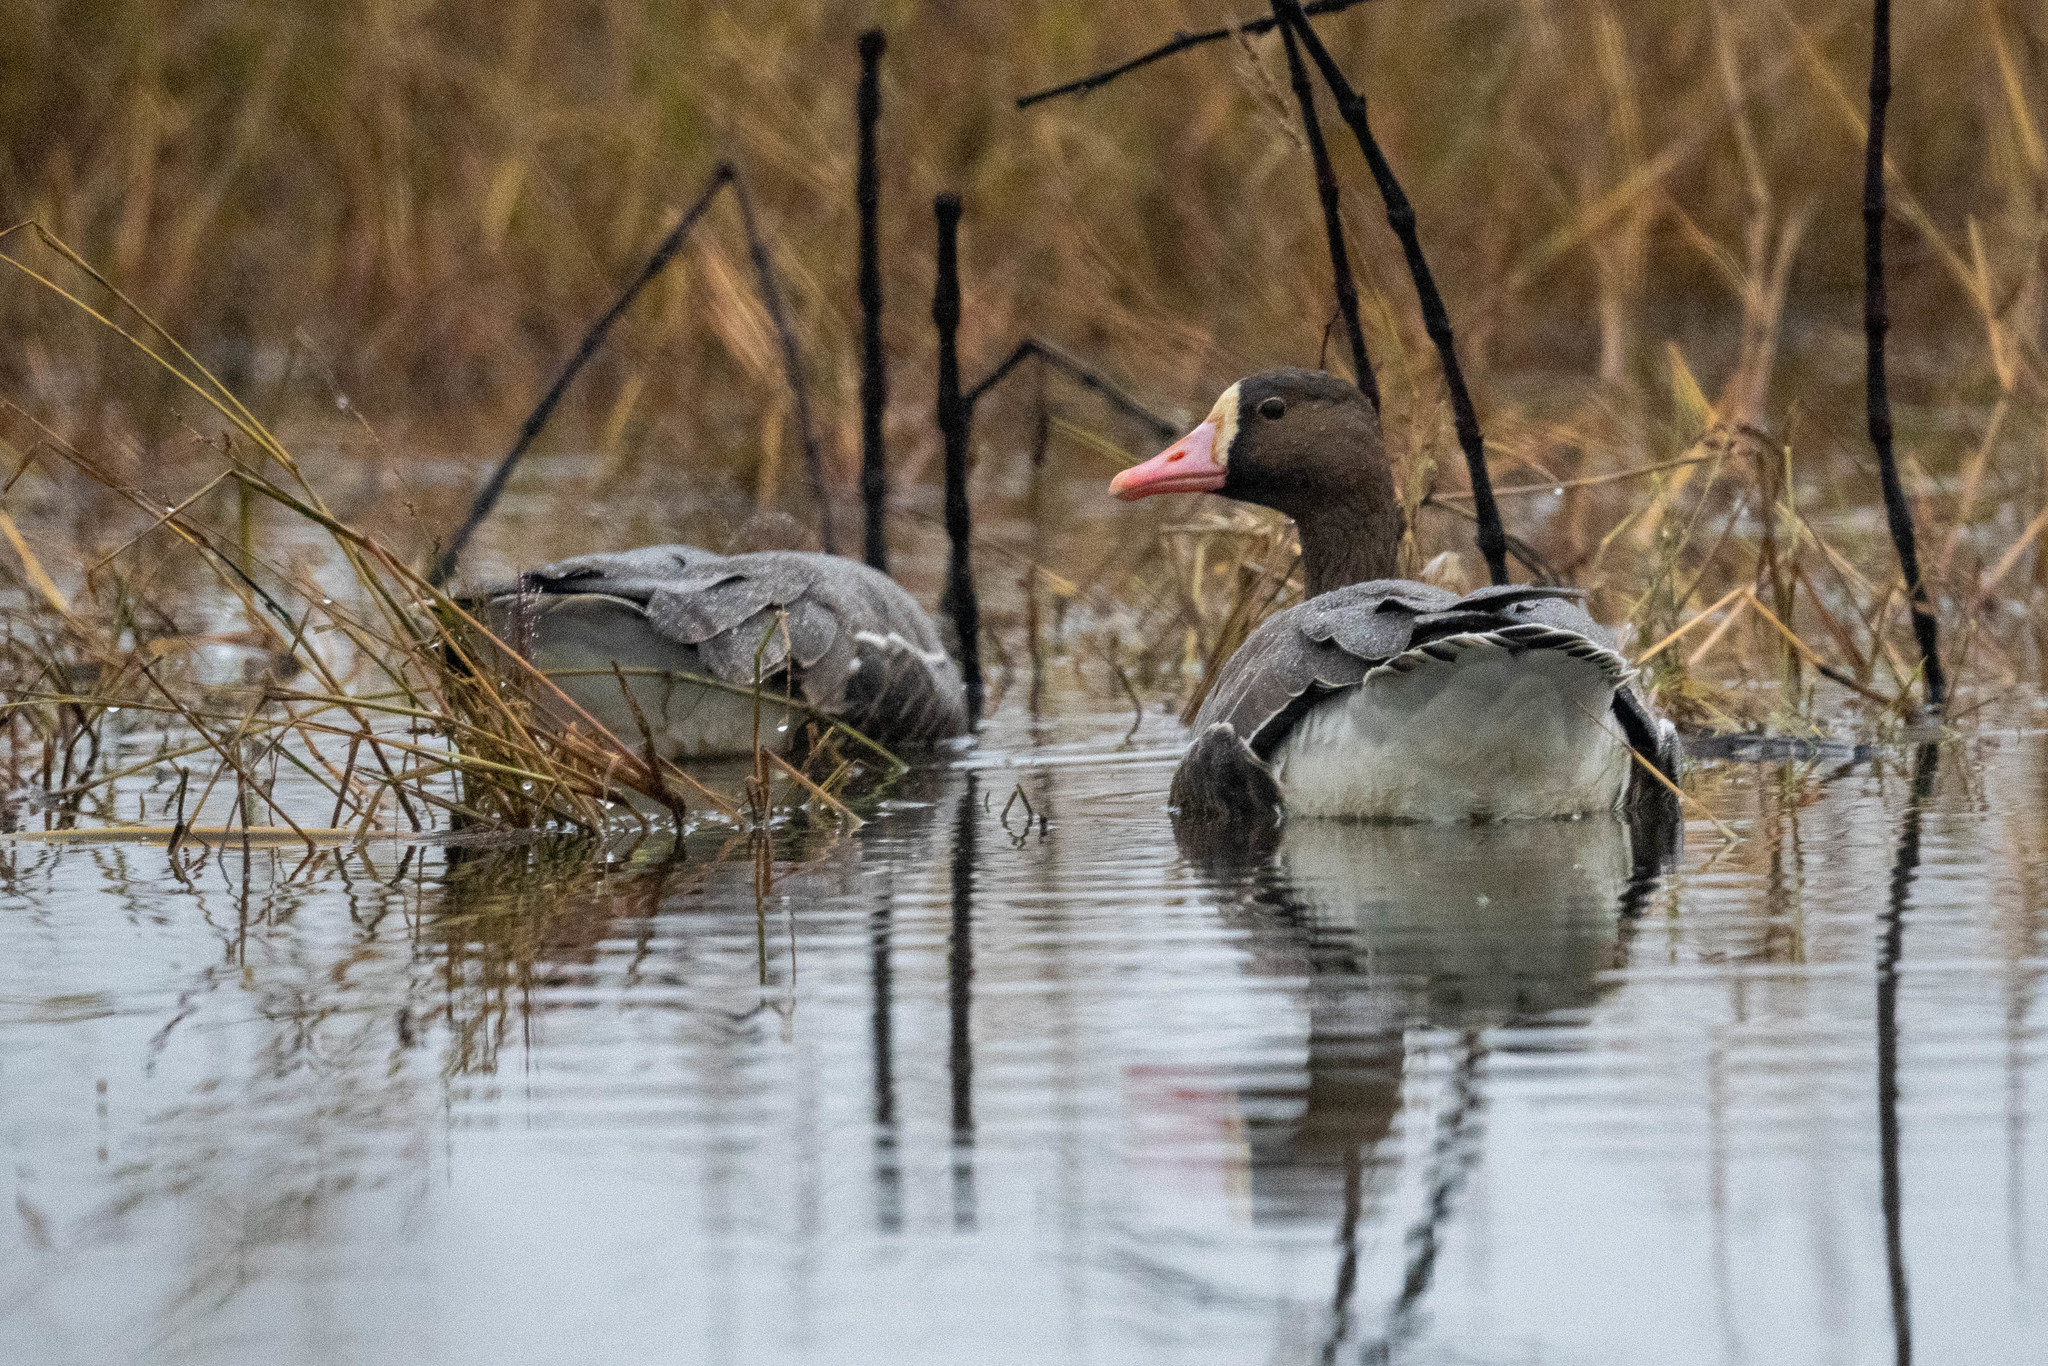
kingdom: Animalia
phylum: Chordata
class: Aves
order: Anseriformes
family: Anatidae
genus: Anser
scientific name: Anser albifrons
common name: Greater white-fronted goose
